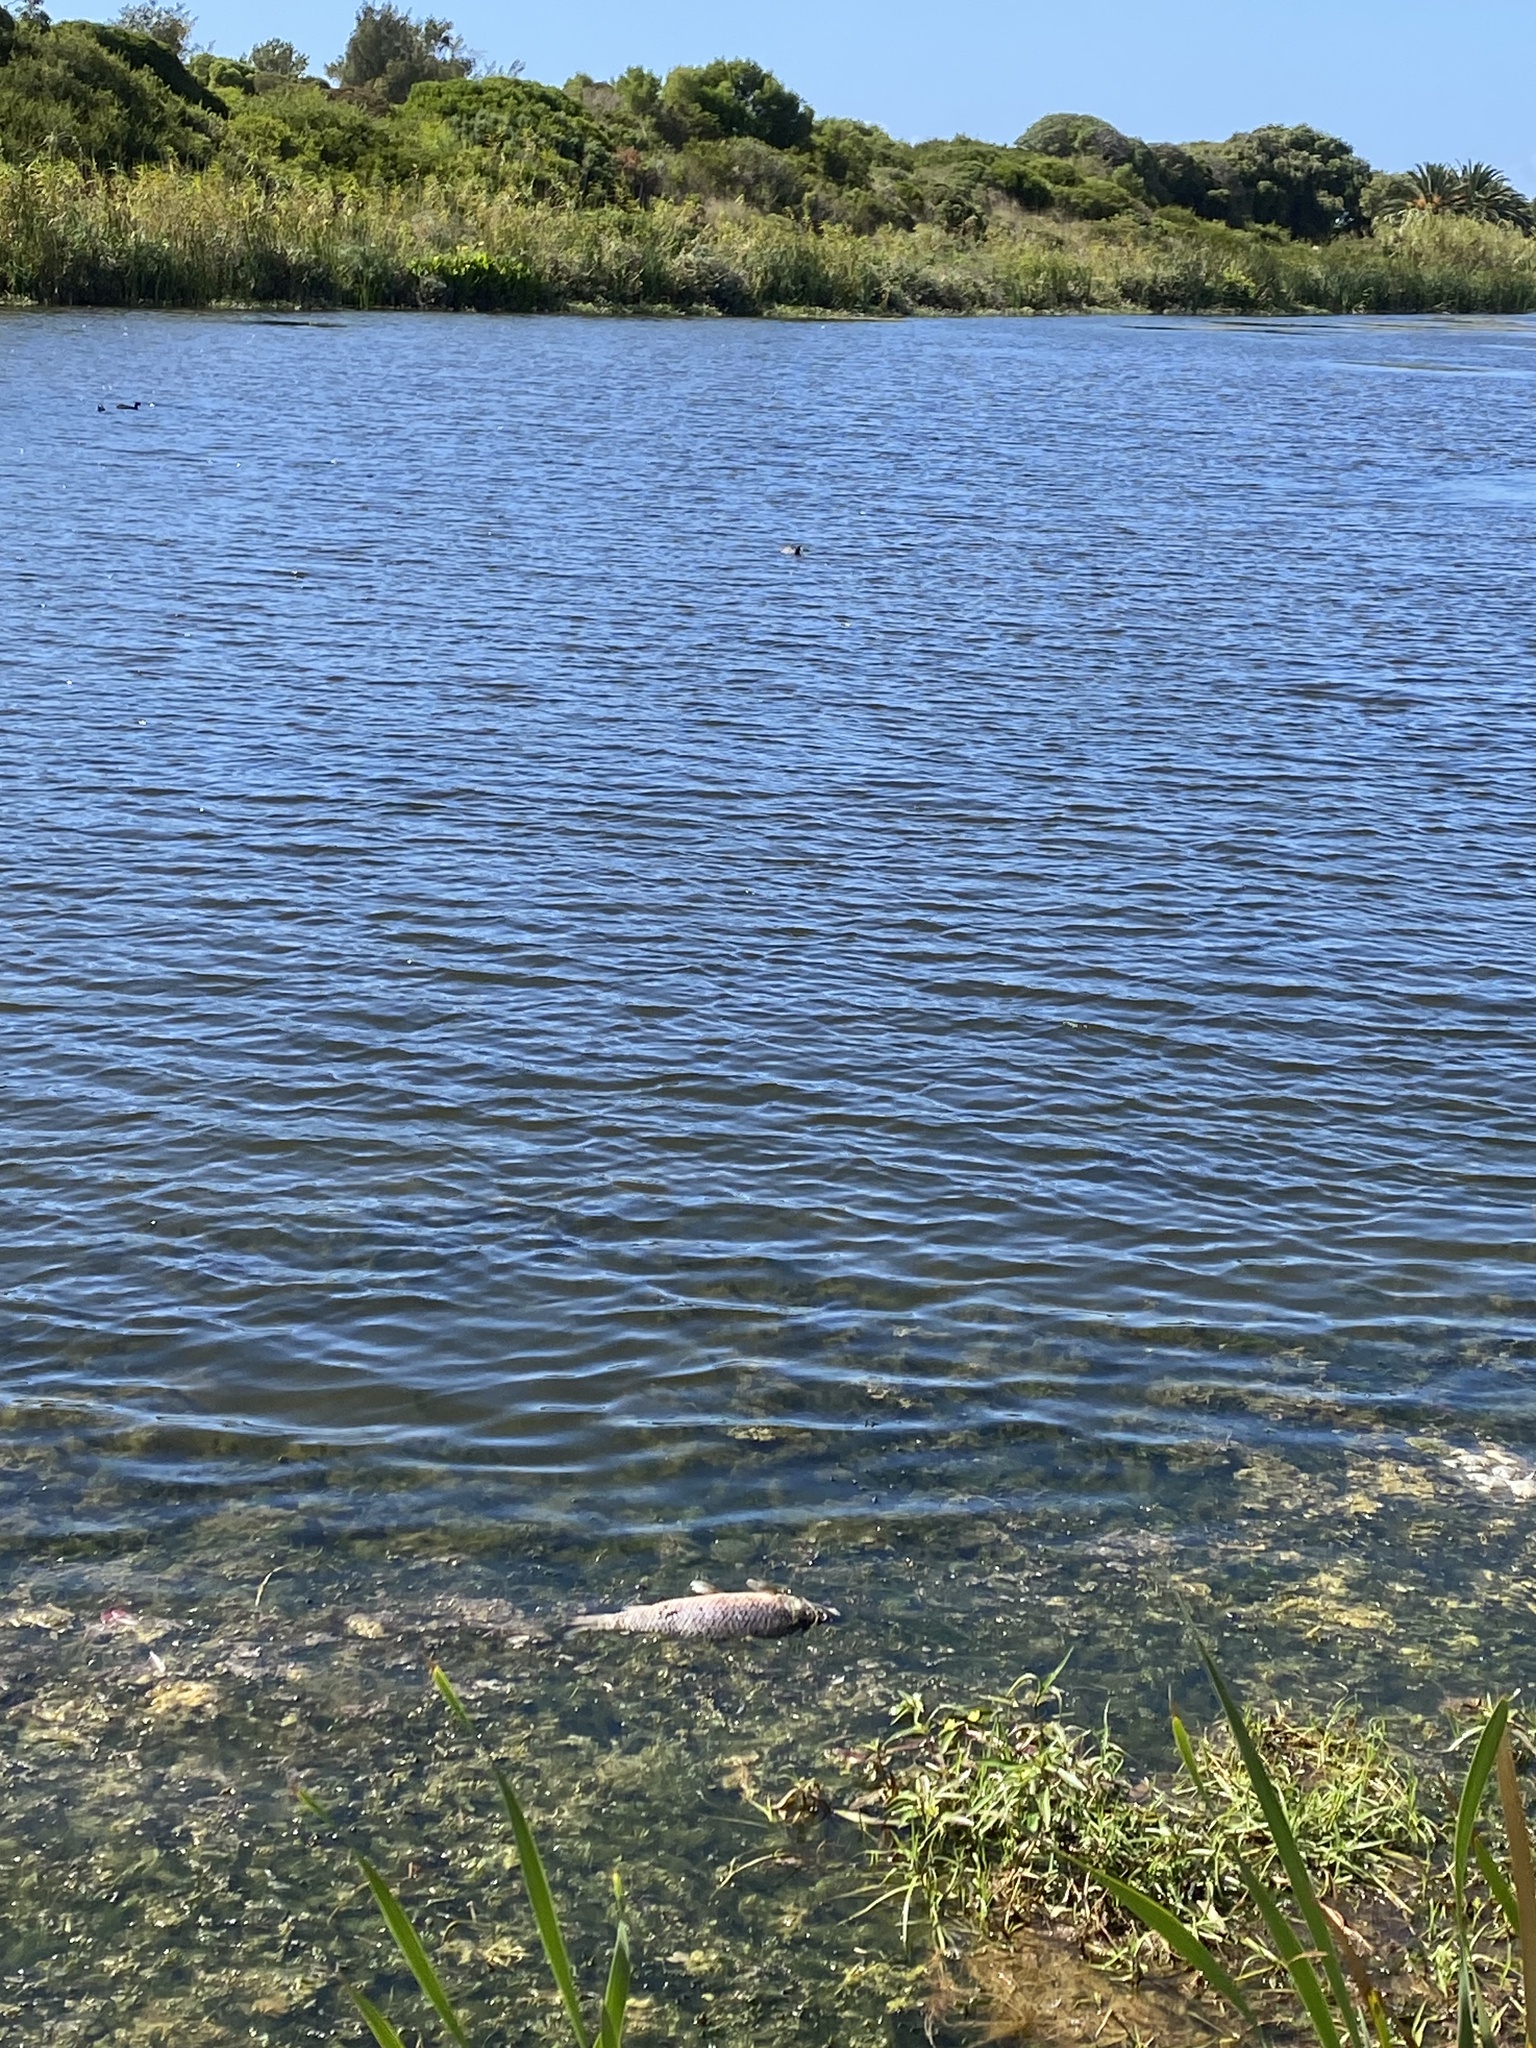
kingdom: Animalia
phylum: Chordata
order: Cypriniformes
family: Cyprinidae
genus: Cyprinus
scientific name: Cyprinus carpio
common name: Common carp
